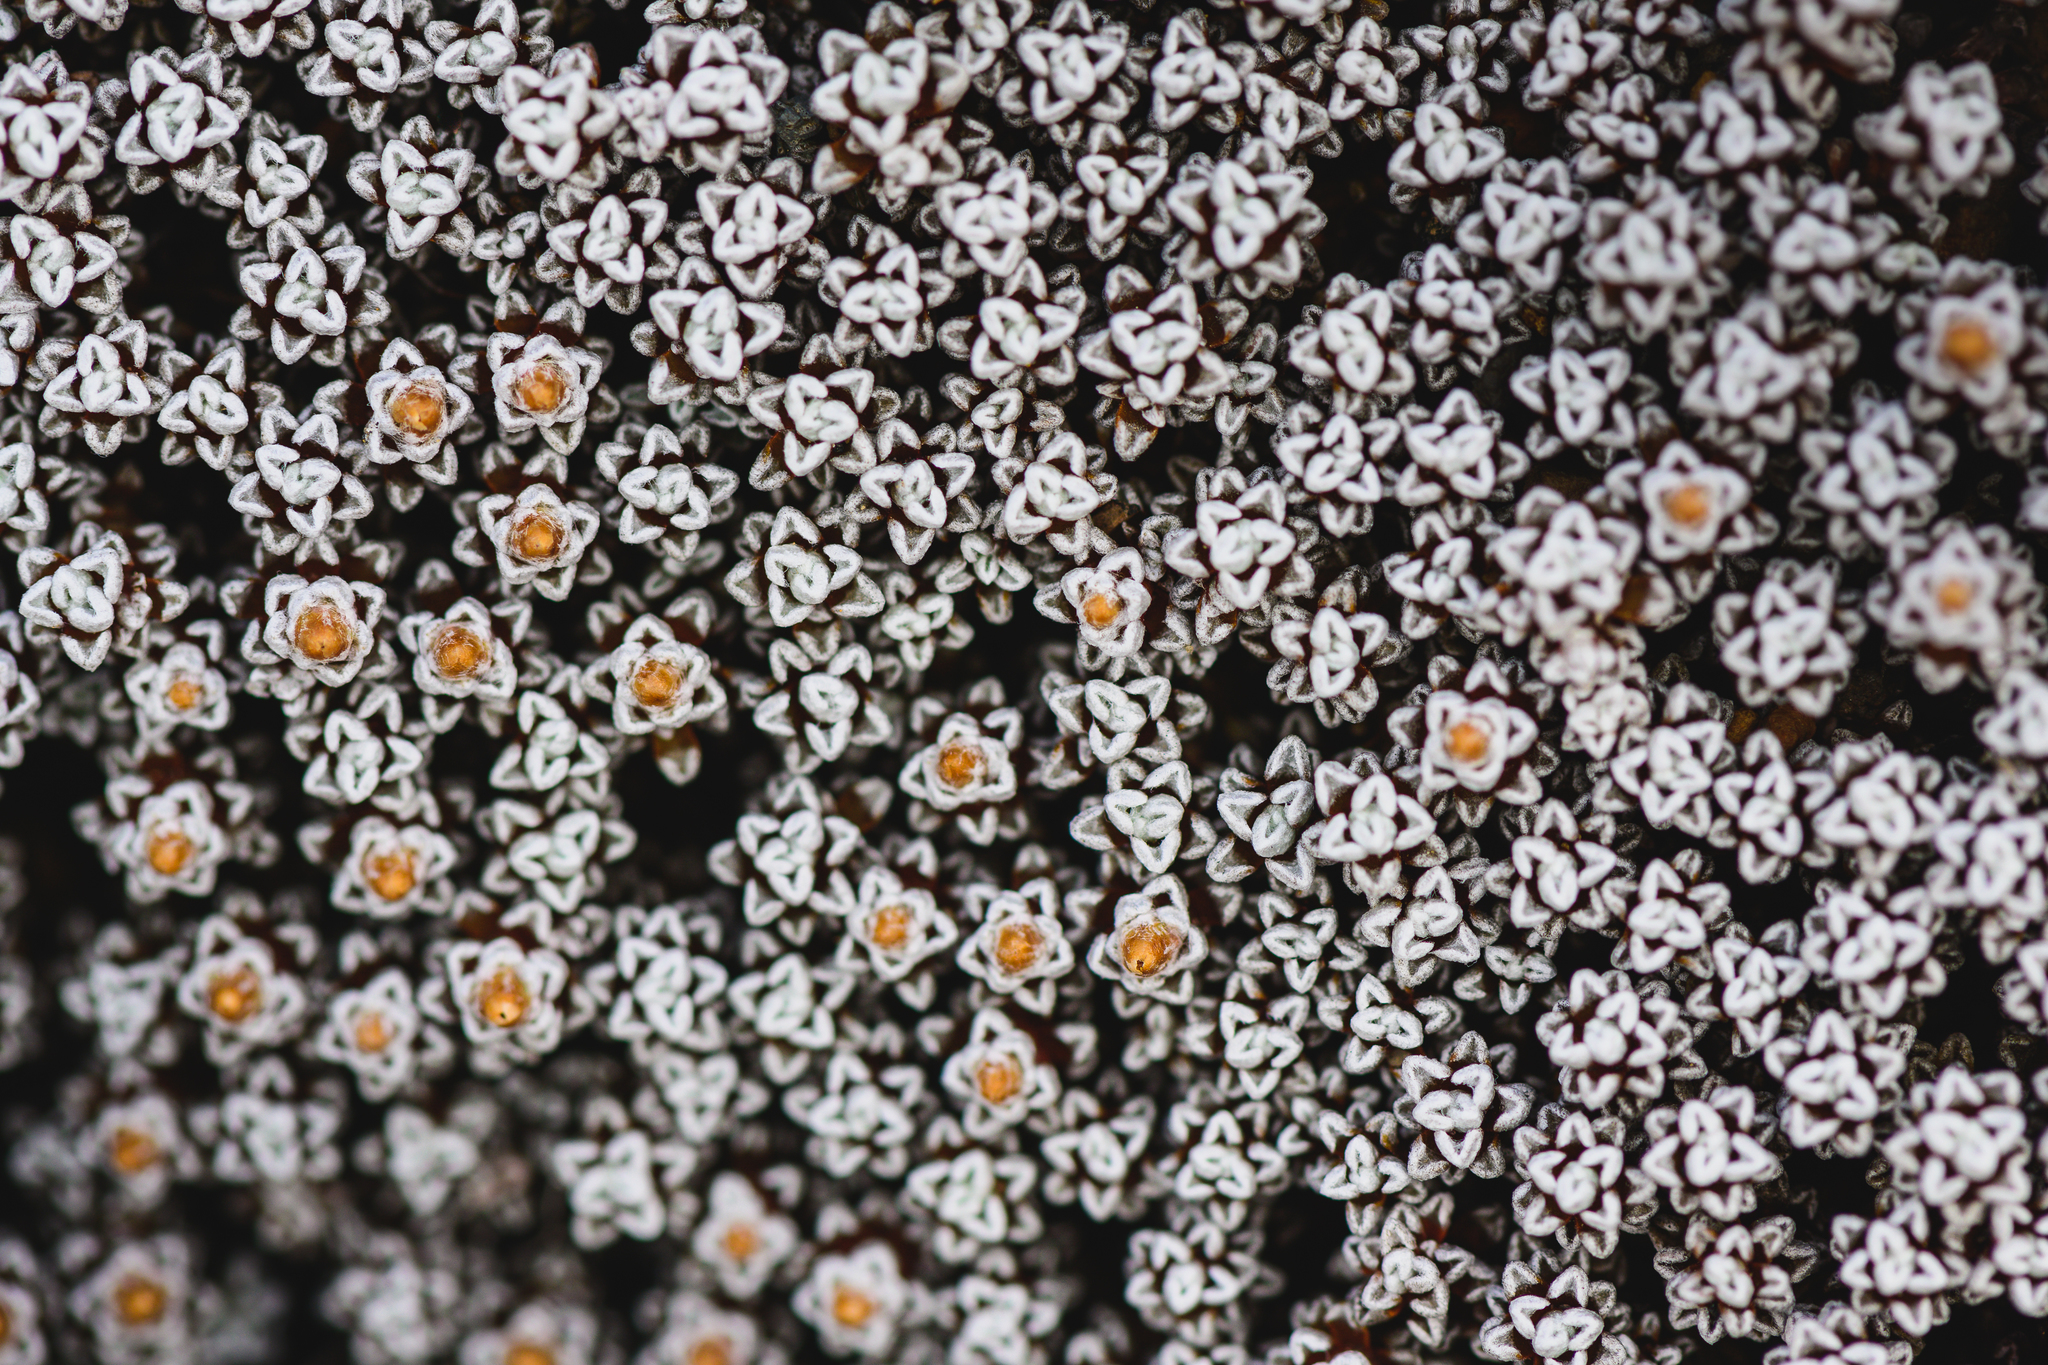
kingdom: Plantae
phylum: Tracheophyta
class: Magnoliopsida
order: Asterales
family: Asteraceae
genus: Raoulia
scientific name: Raoulia albosericea
